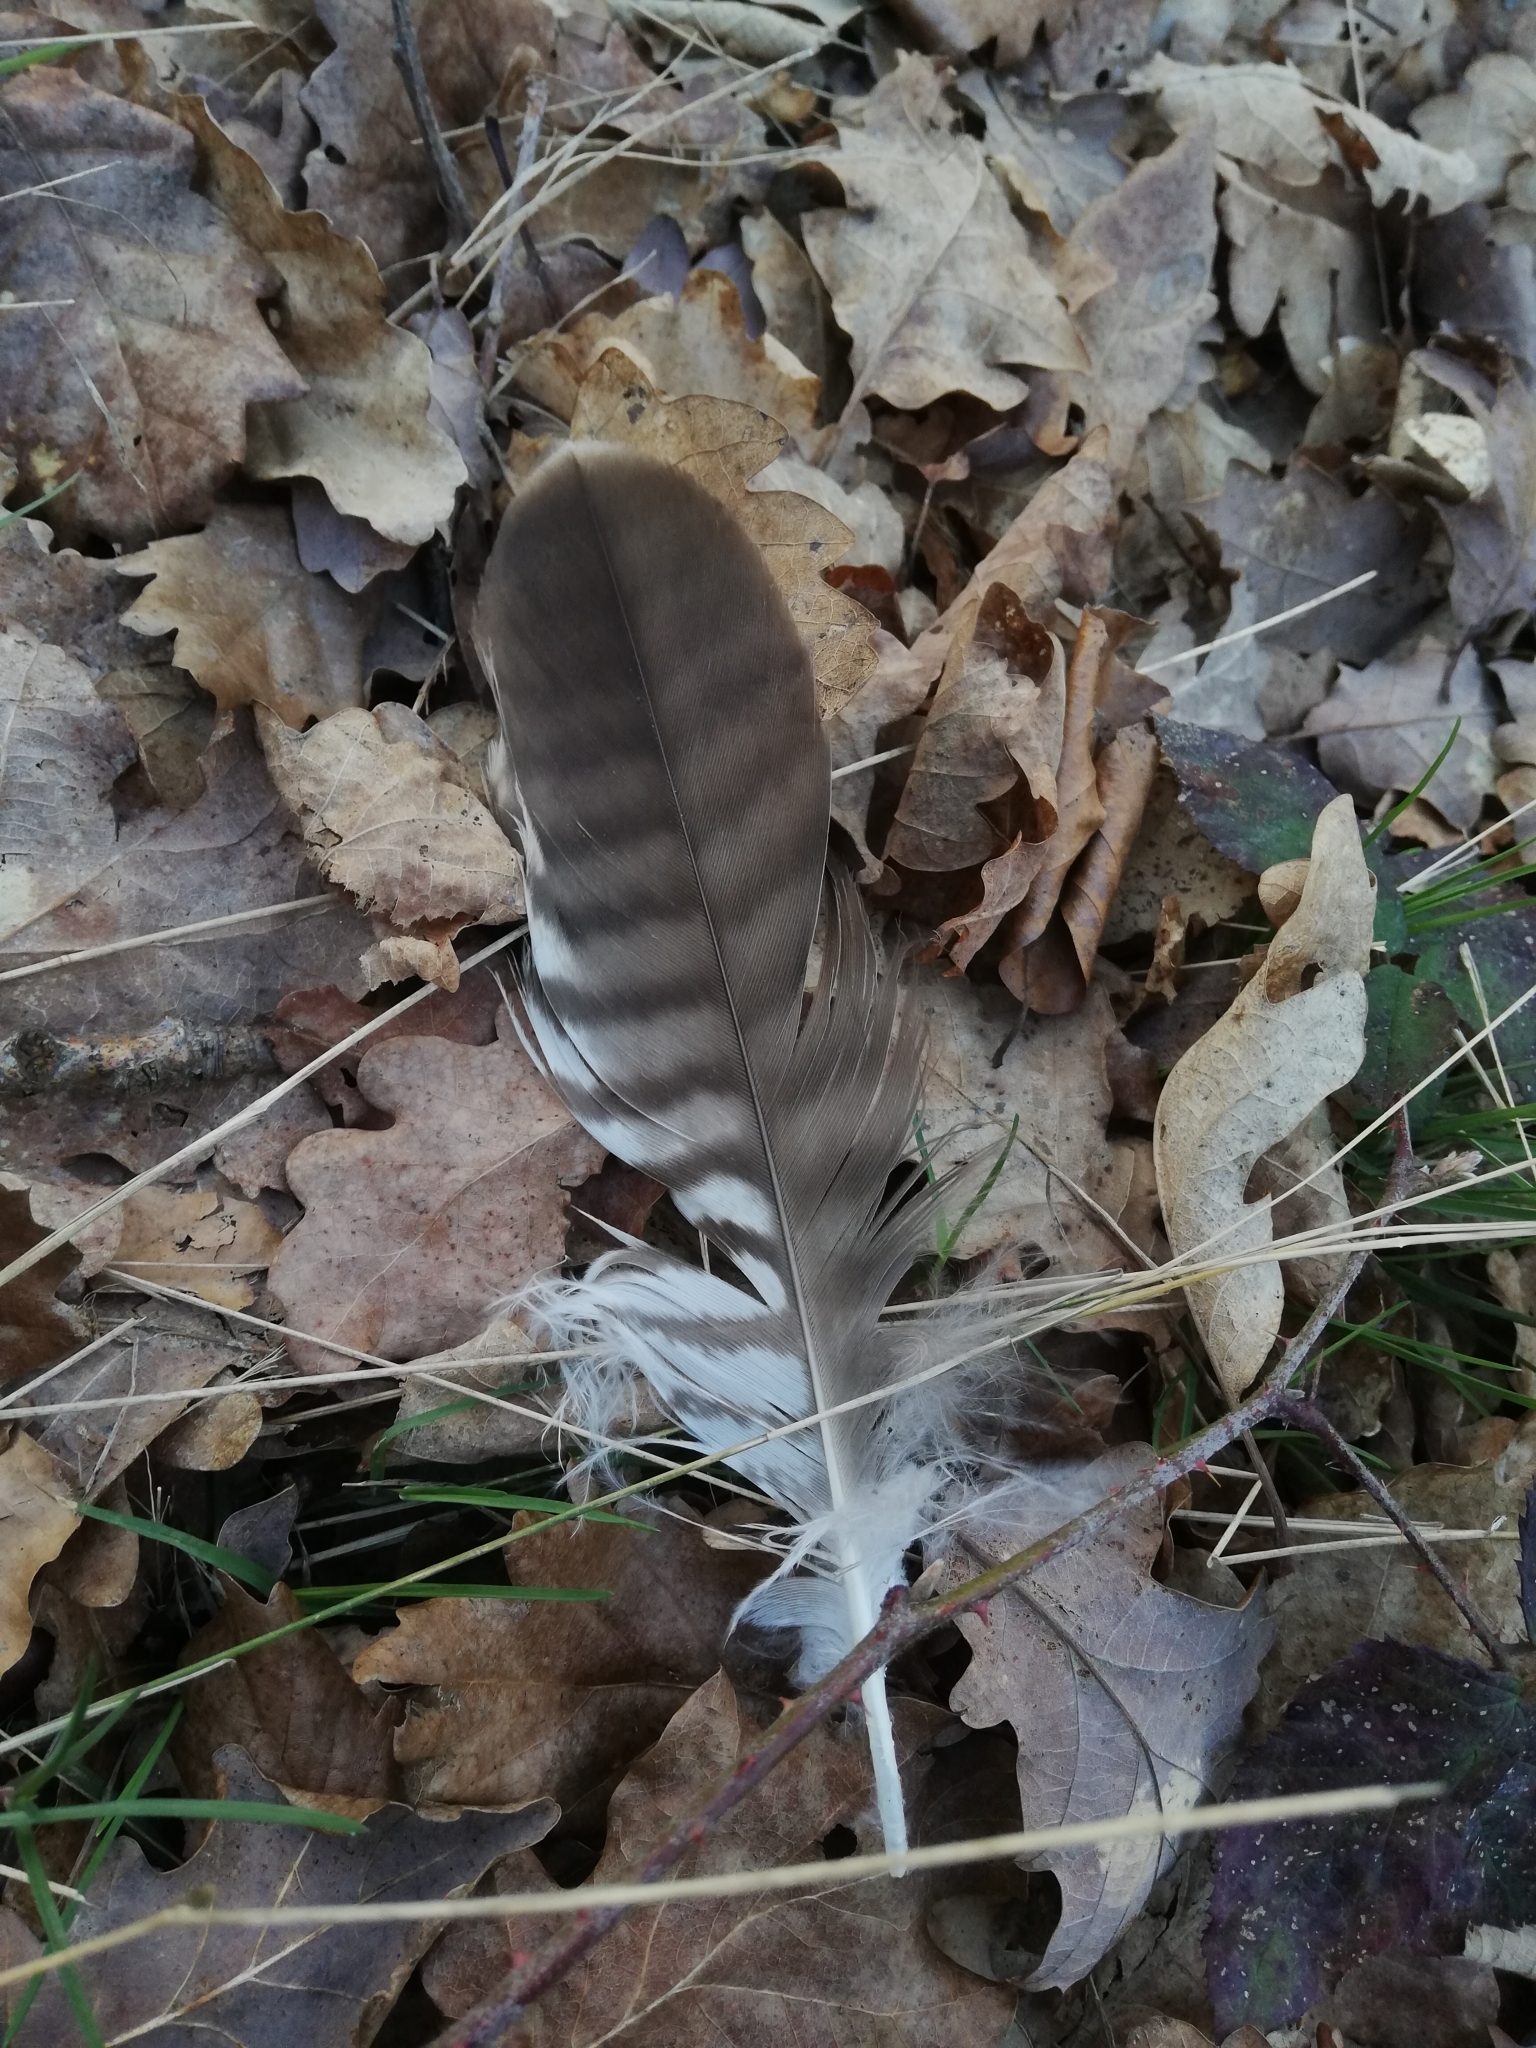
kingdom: Animalia
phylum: Chordata
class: Aves
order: Accipitriformes
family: Accipitridae
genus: Buteo
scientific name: Buteo buteo
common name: Common buzzard
